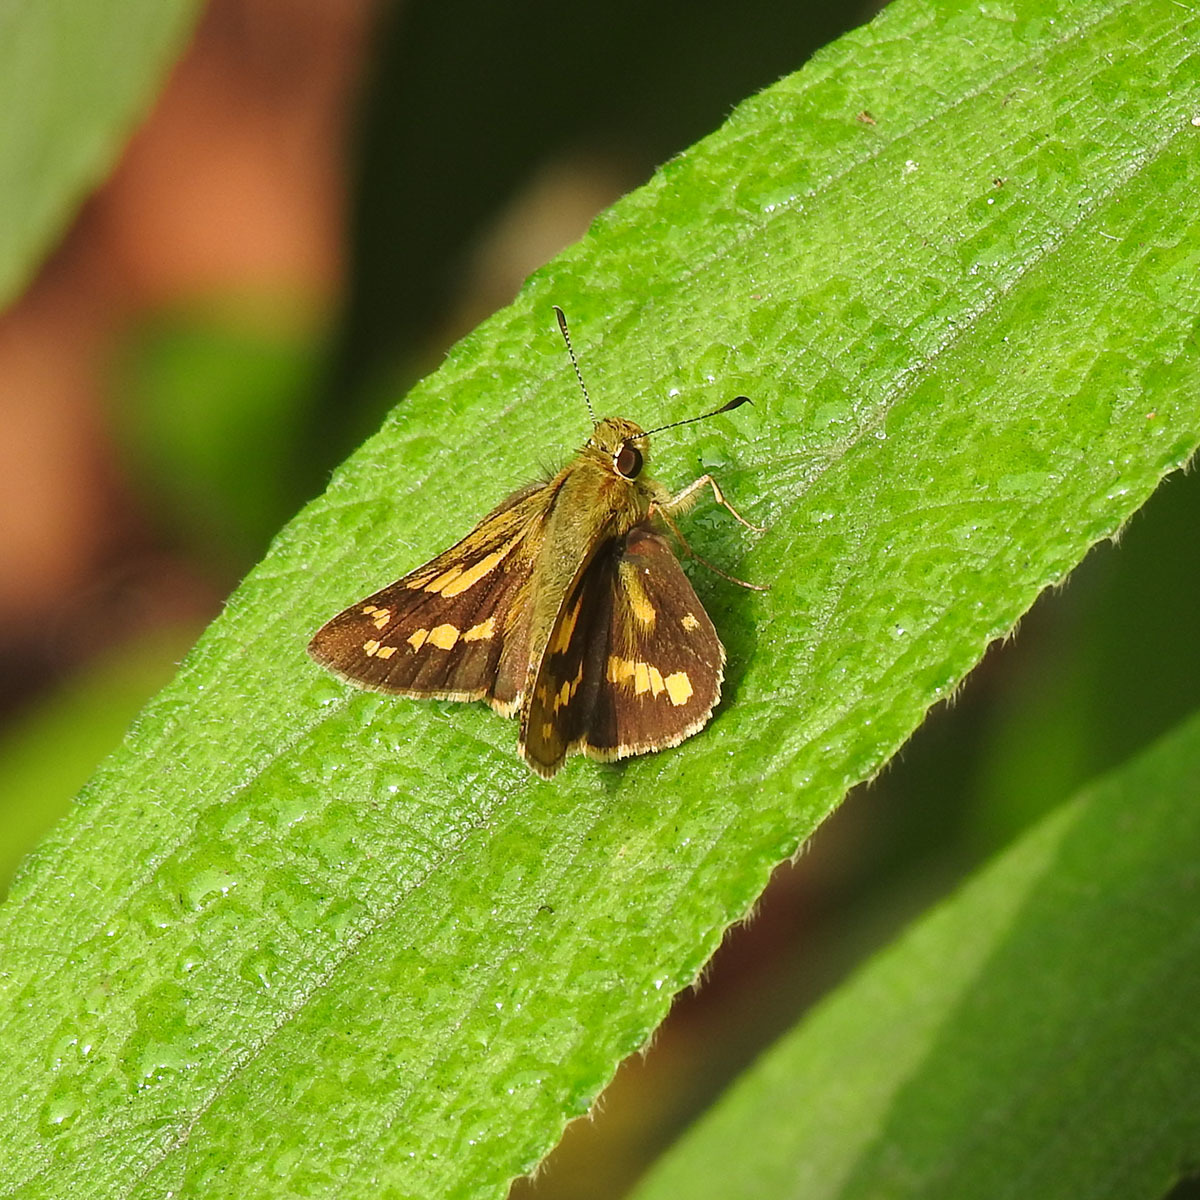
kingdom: Animalia
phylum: Arthropoda
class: Insecta
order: Lepidoptera
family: Hesperiidae
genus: Potanthus
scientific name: Potanthus omaha
